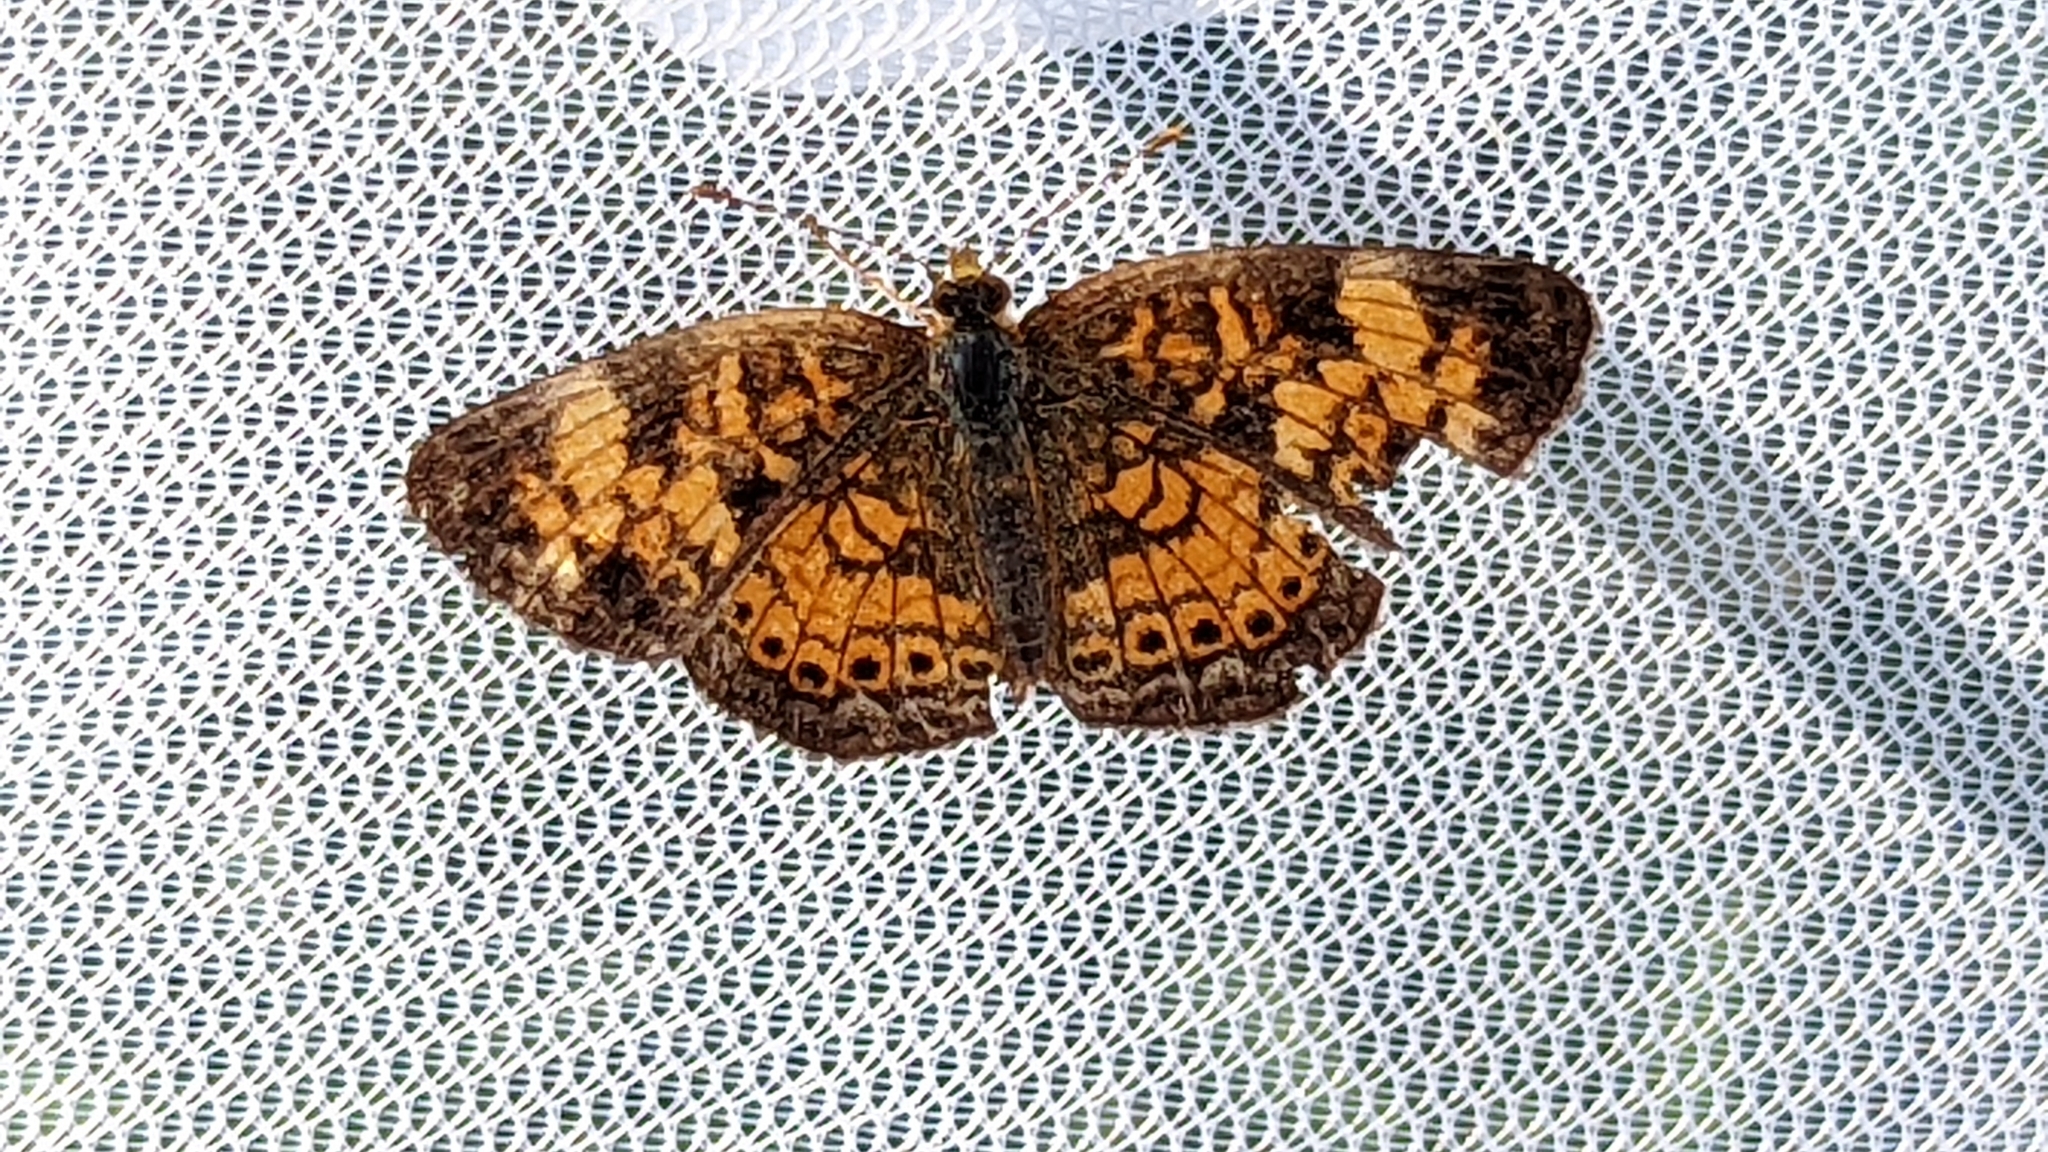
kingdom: Animalia
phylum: Arthropoda
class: Insecta
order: Lepidoptera
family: Nymphalidae
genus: Phyciodes
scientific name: Phyciodes tharos
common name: Pearl crescent
